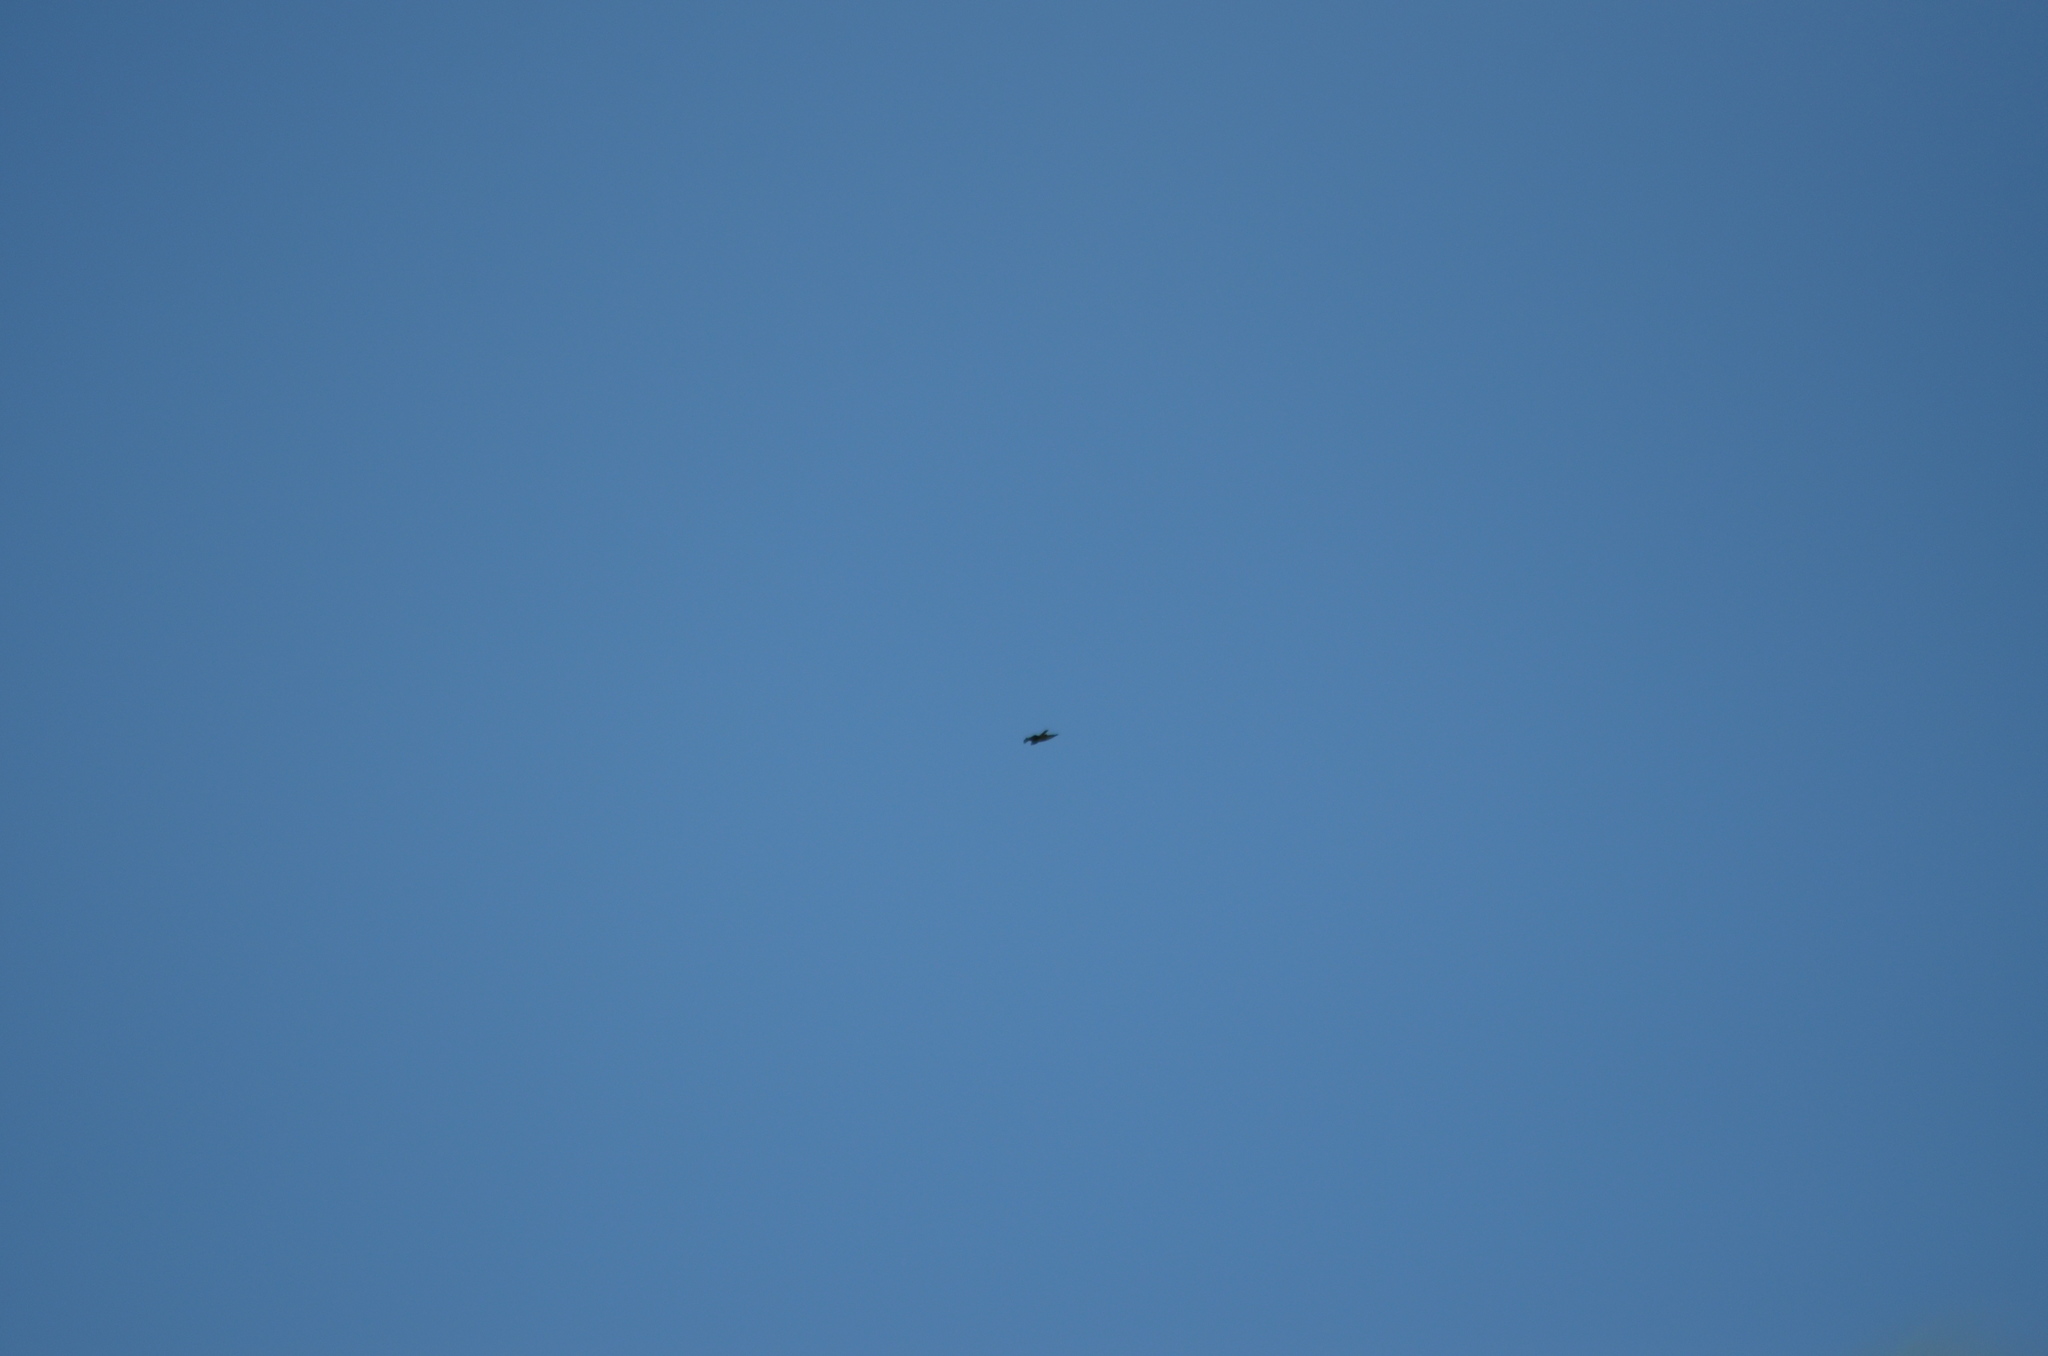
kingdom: Animalia
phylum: Chordata
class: Aves
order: Accipitriformes
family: Accipitridae
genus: Buteo
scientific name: Buteo buteo
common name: Common buzzard
